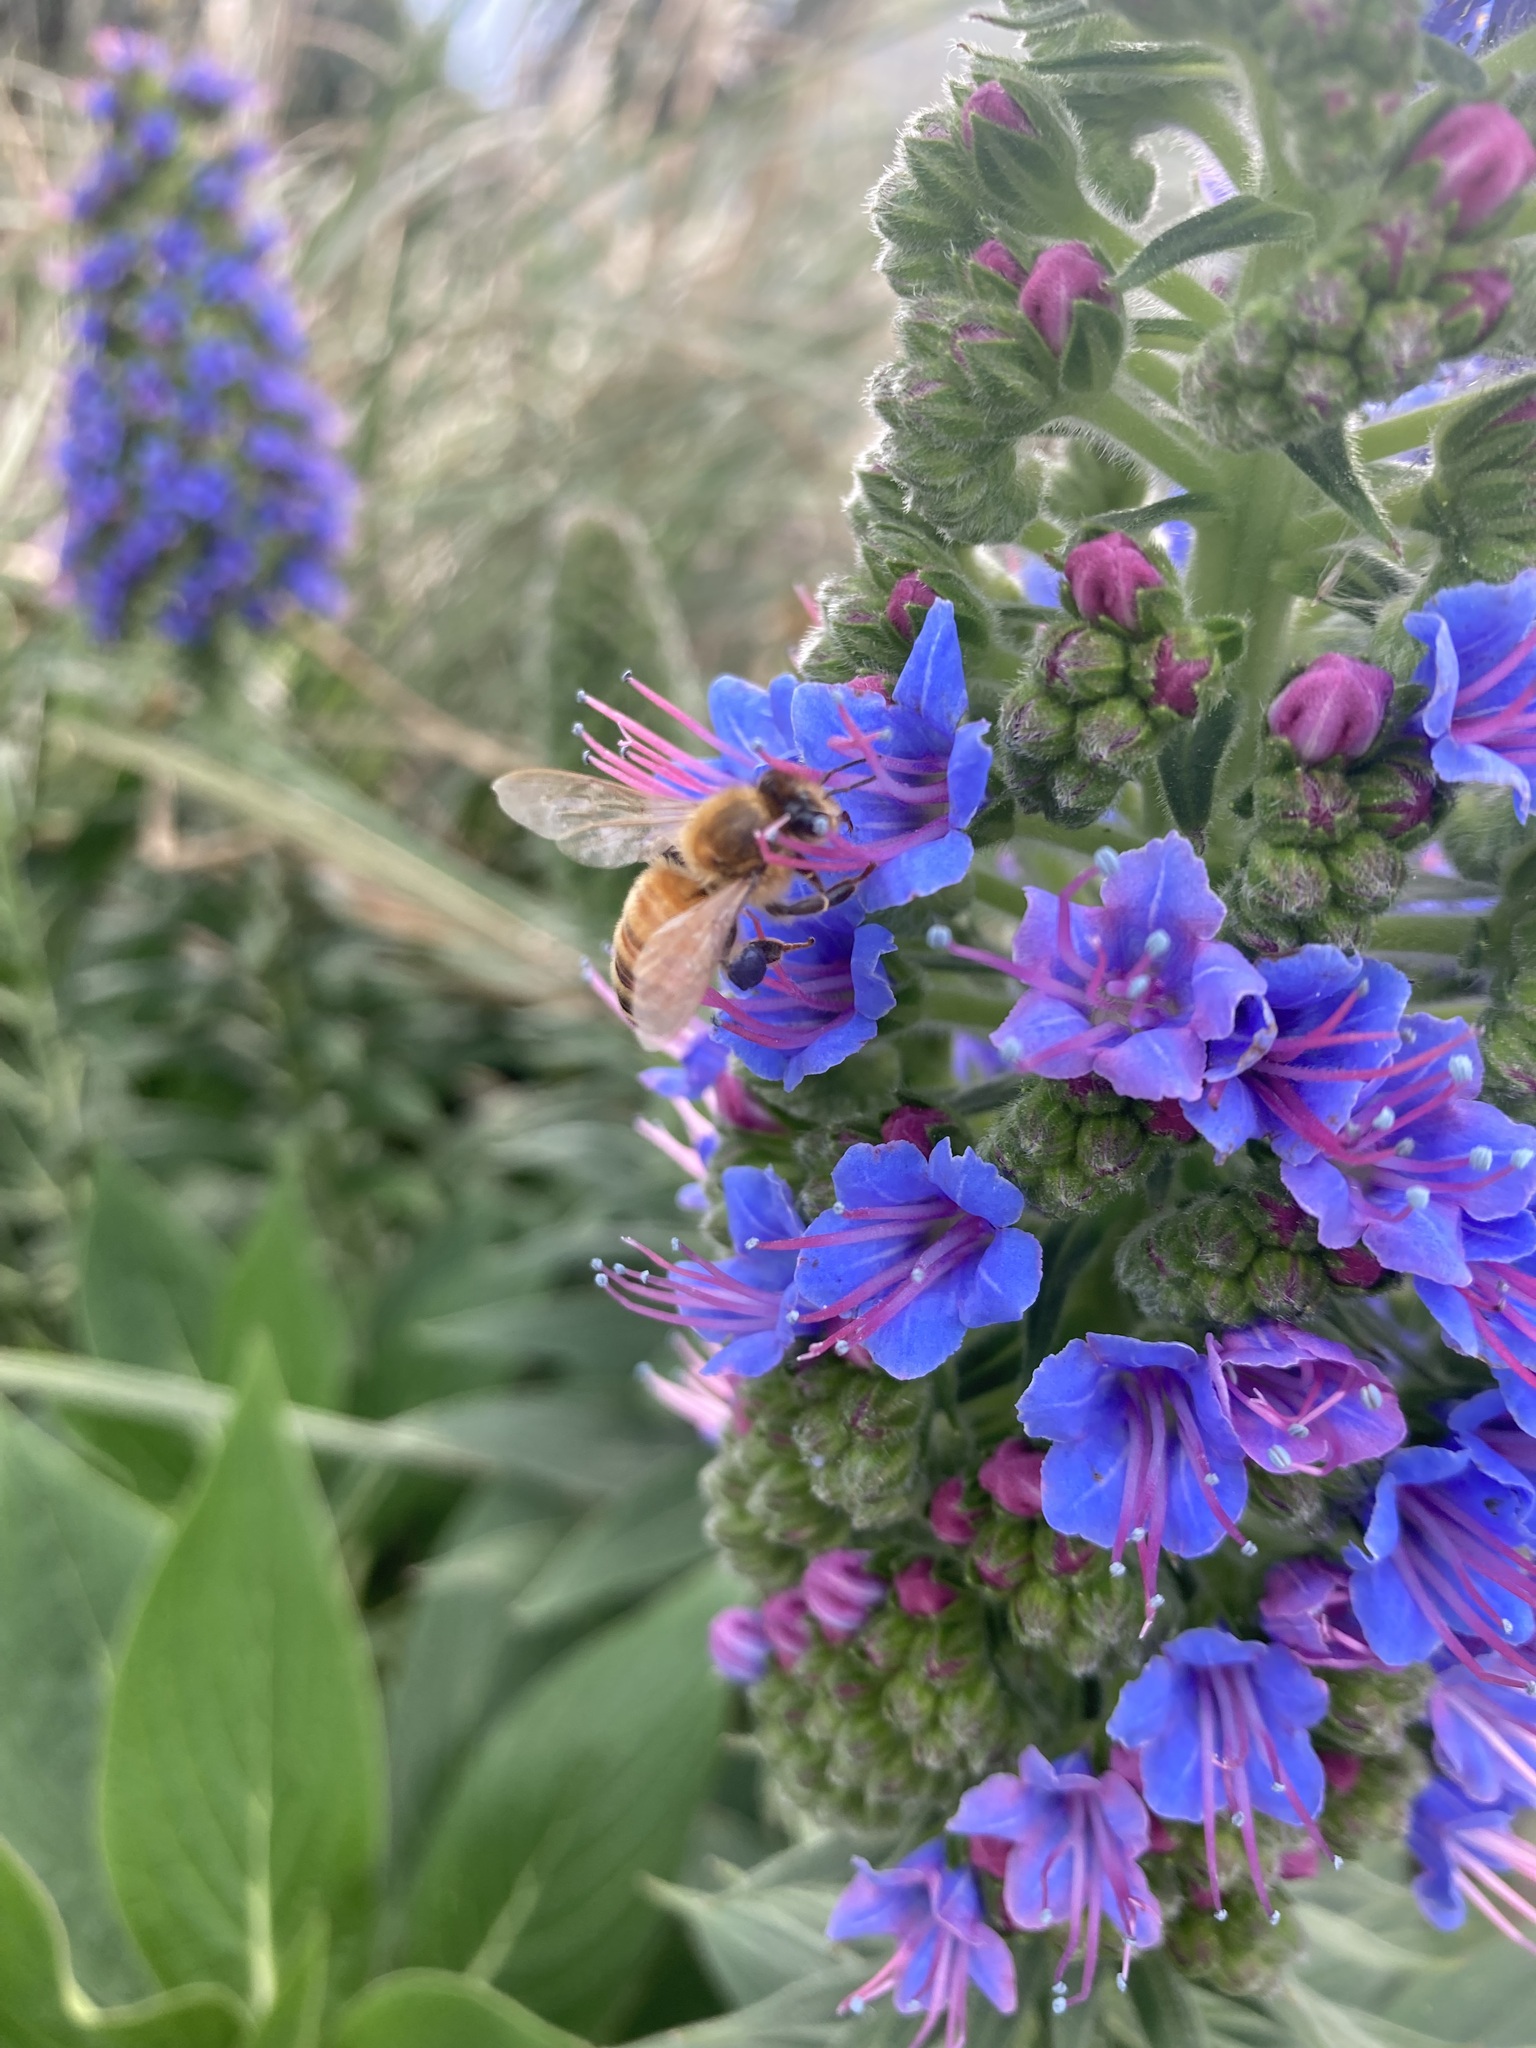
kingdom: Animalia
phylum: Arthropoda
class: Insecta
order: Hymenoptera
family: Apidae
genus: Apis
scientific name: Apis mellifera
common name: Honey bee
